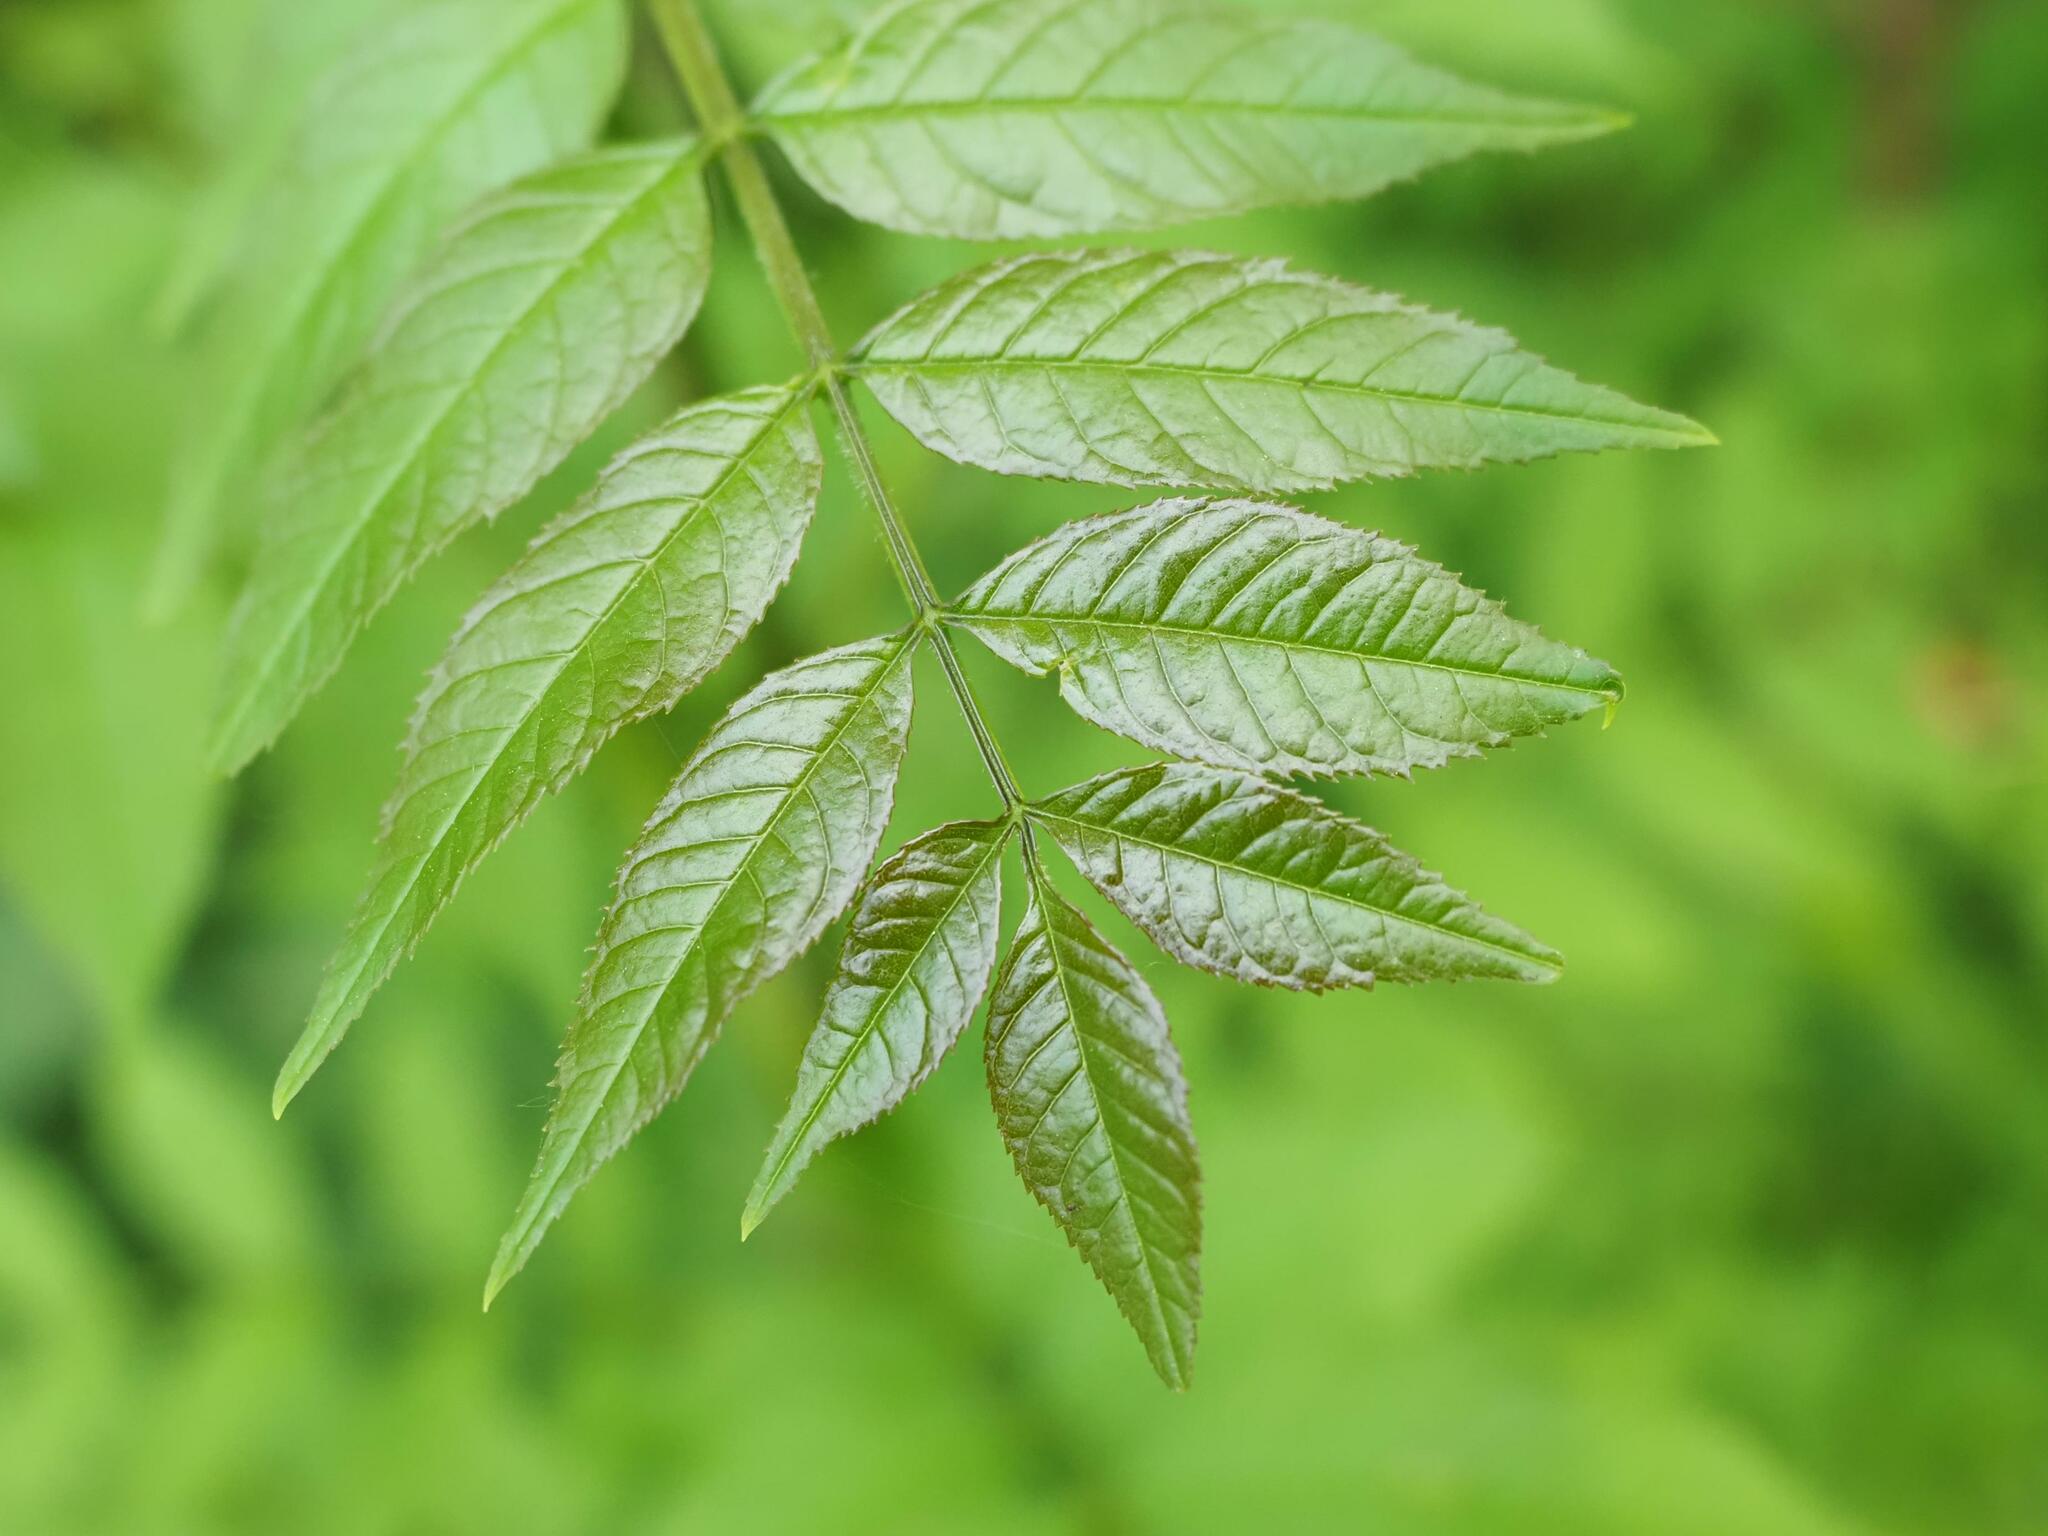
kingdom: Plantae
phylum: Tracheophyta
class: Magnoliopsida
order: Lamiales
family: Oleaceae
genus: Fraxinus
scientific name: Fraxinus excelsior
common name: European ash
